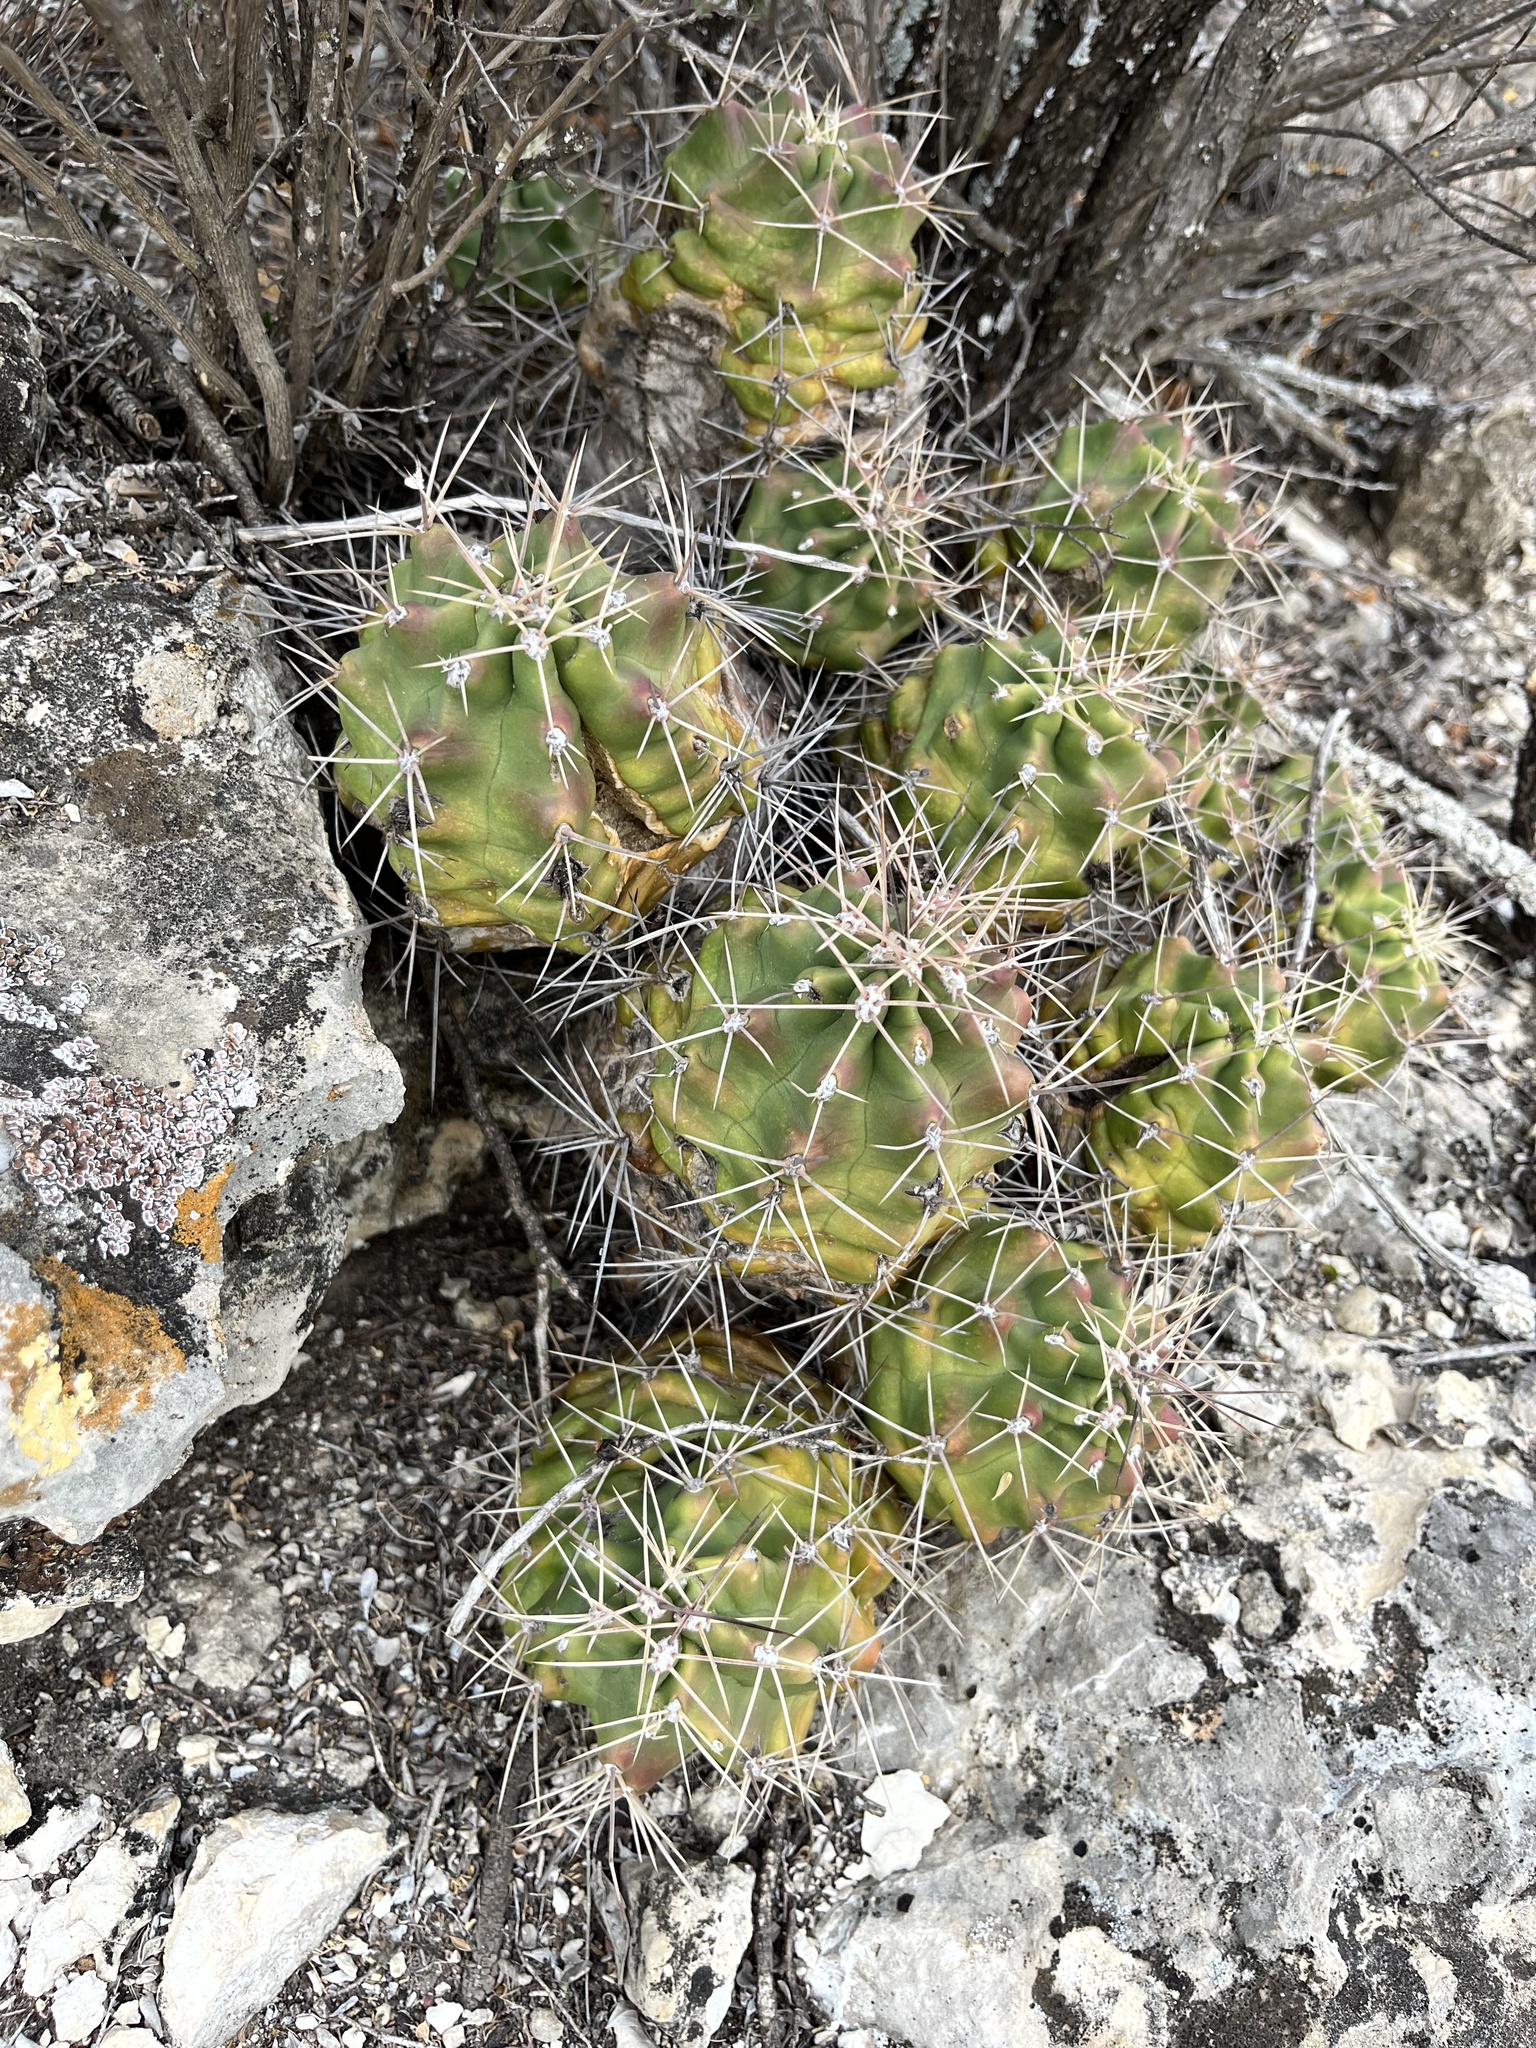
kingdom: Plantae
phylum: Tracheophyta
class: Magnoliopsida
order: Caryophyllales
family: Cactaceae
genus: Echinocereus
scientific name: Echinocereus coccineus
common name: Scarlet hedgehog cactus
